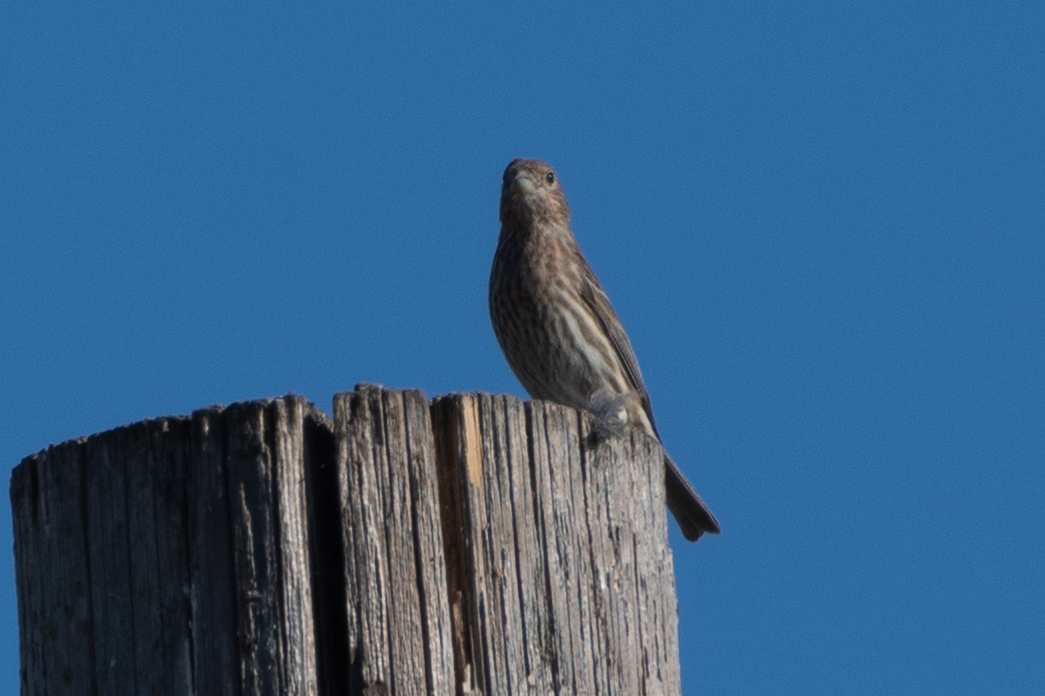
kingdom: Animalia
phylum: Chordata
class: Aves
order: Passeriformes
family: Fringillidae
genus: Haemorhous
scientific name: Haemorhous mexicanus
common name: House finch
